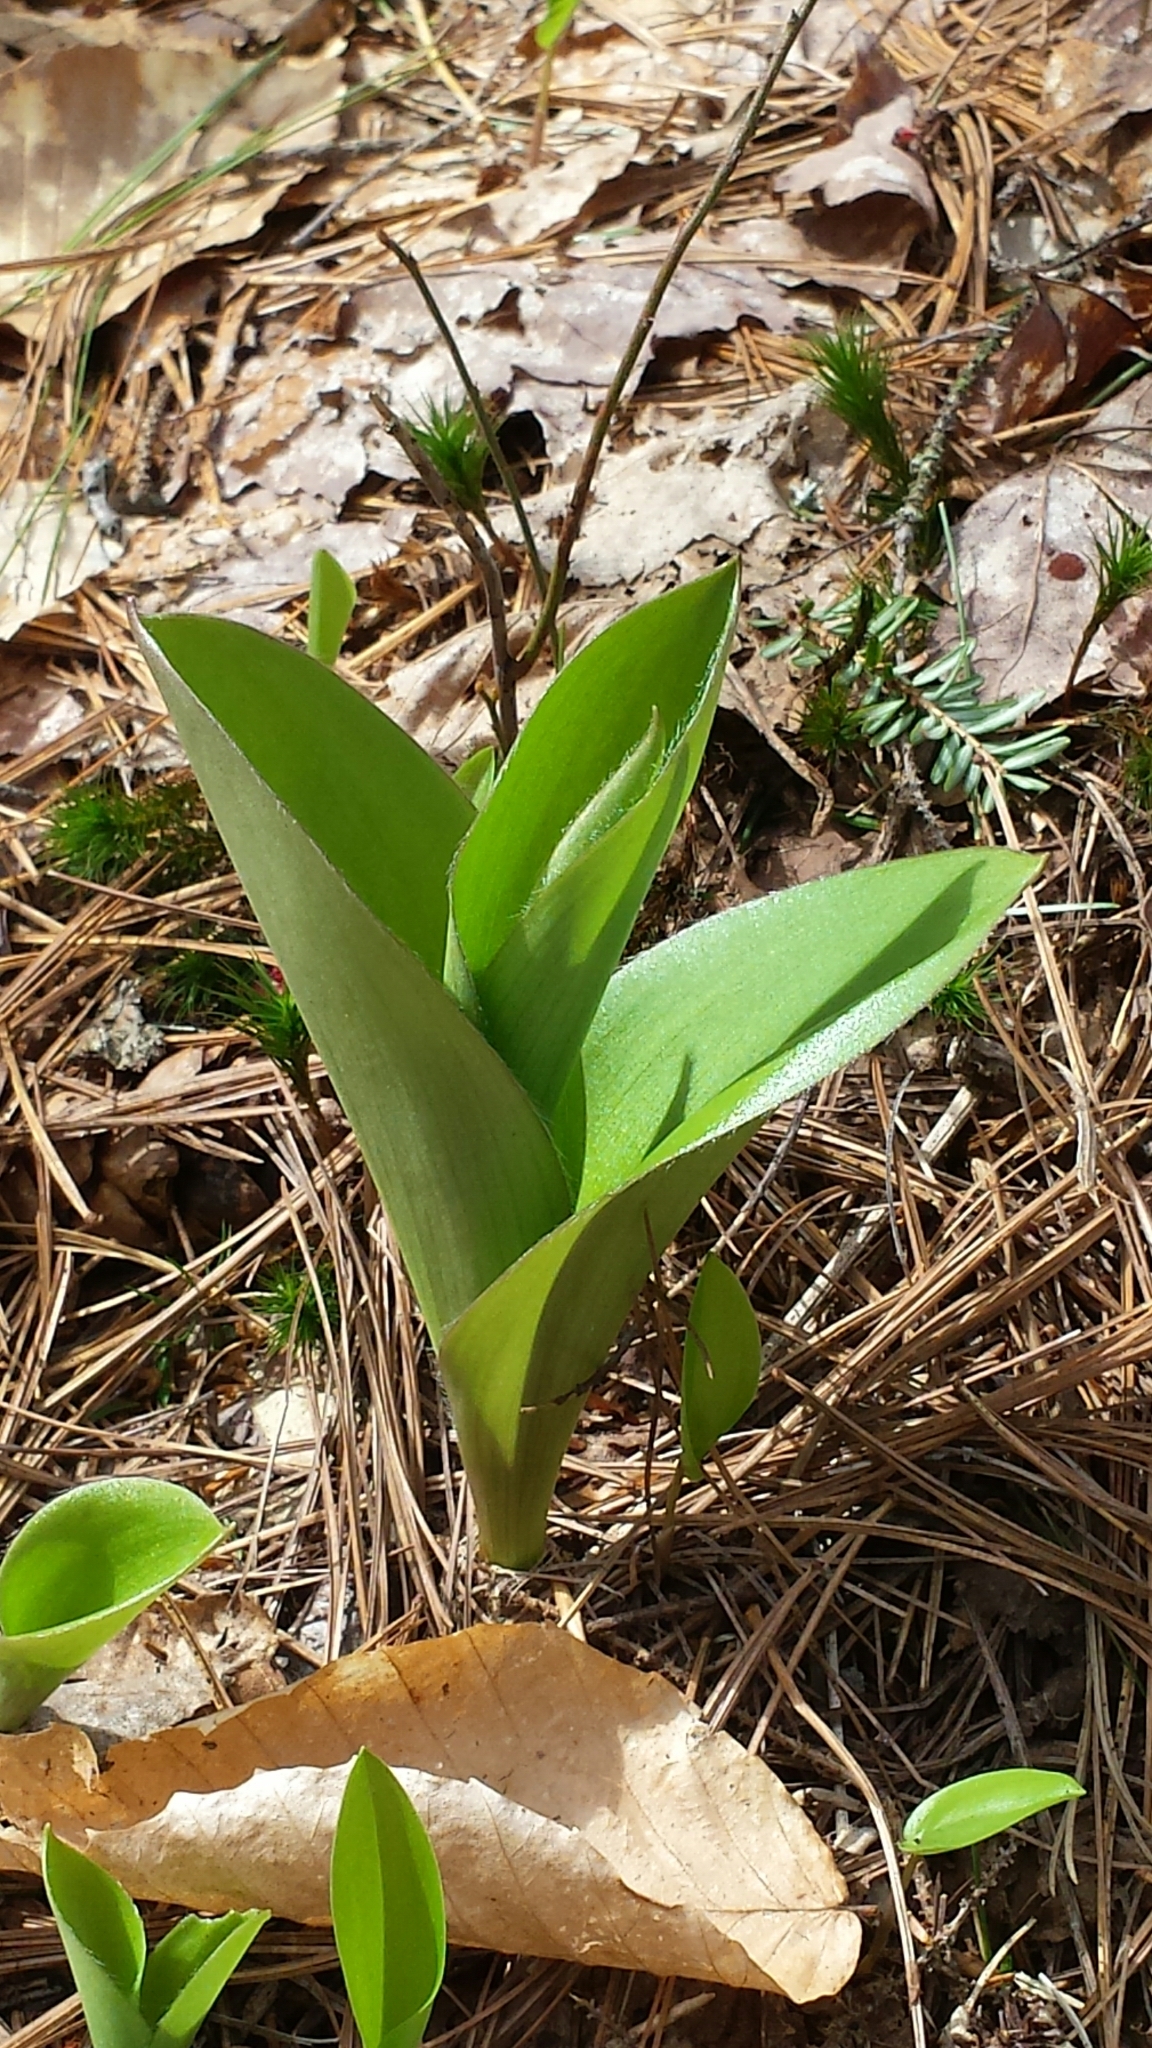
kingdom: Plantae
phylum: Tracheophyta
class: Liliopsida
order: Liliales
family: Liliaceae
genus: Clintonia
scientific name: Clintonia borealis
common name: Yellow clintonia
